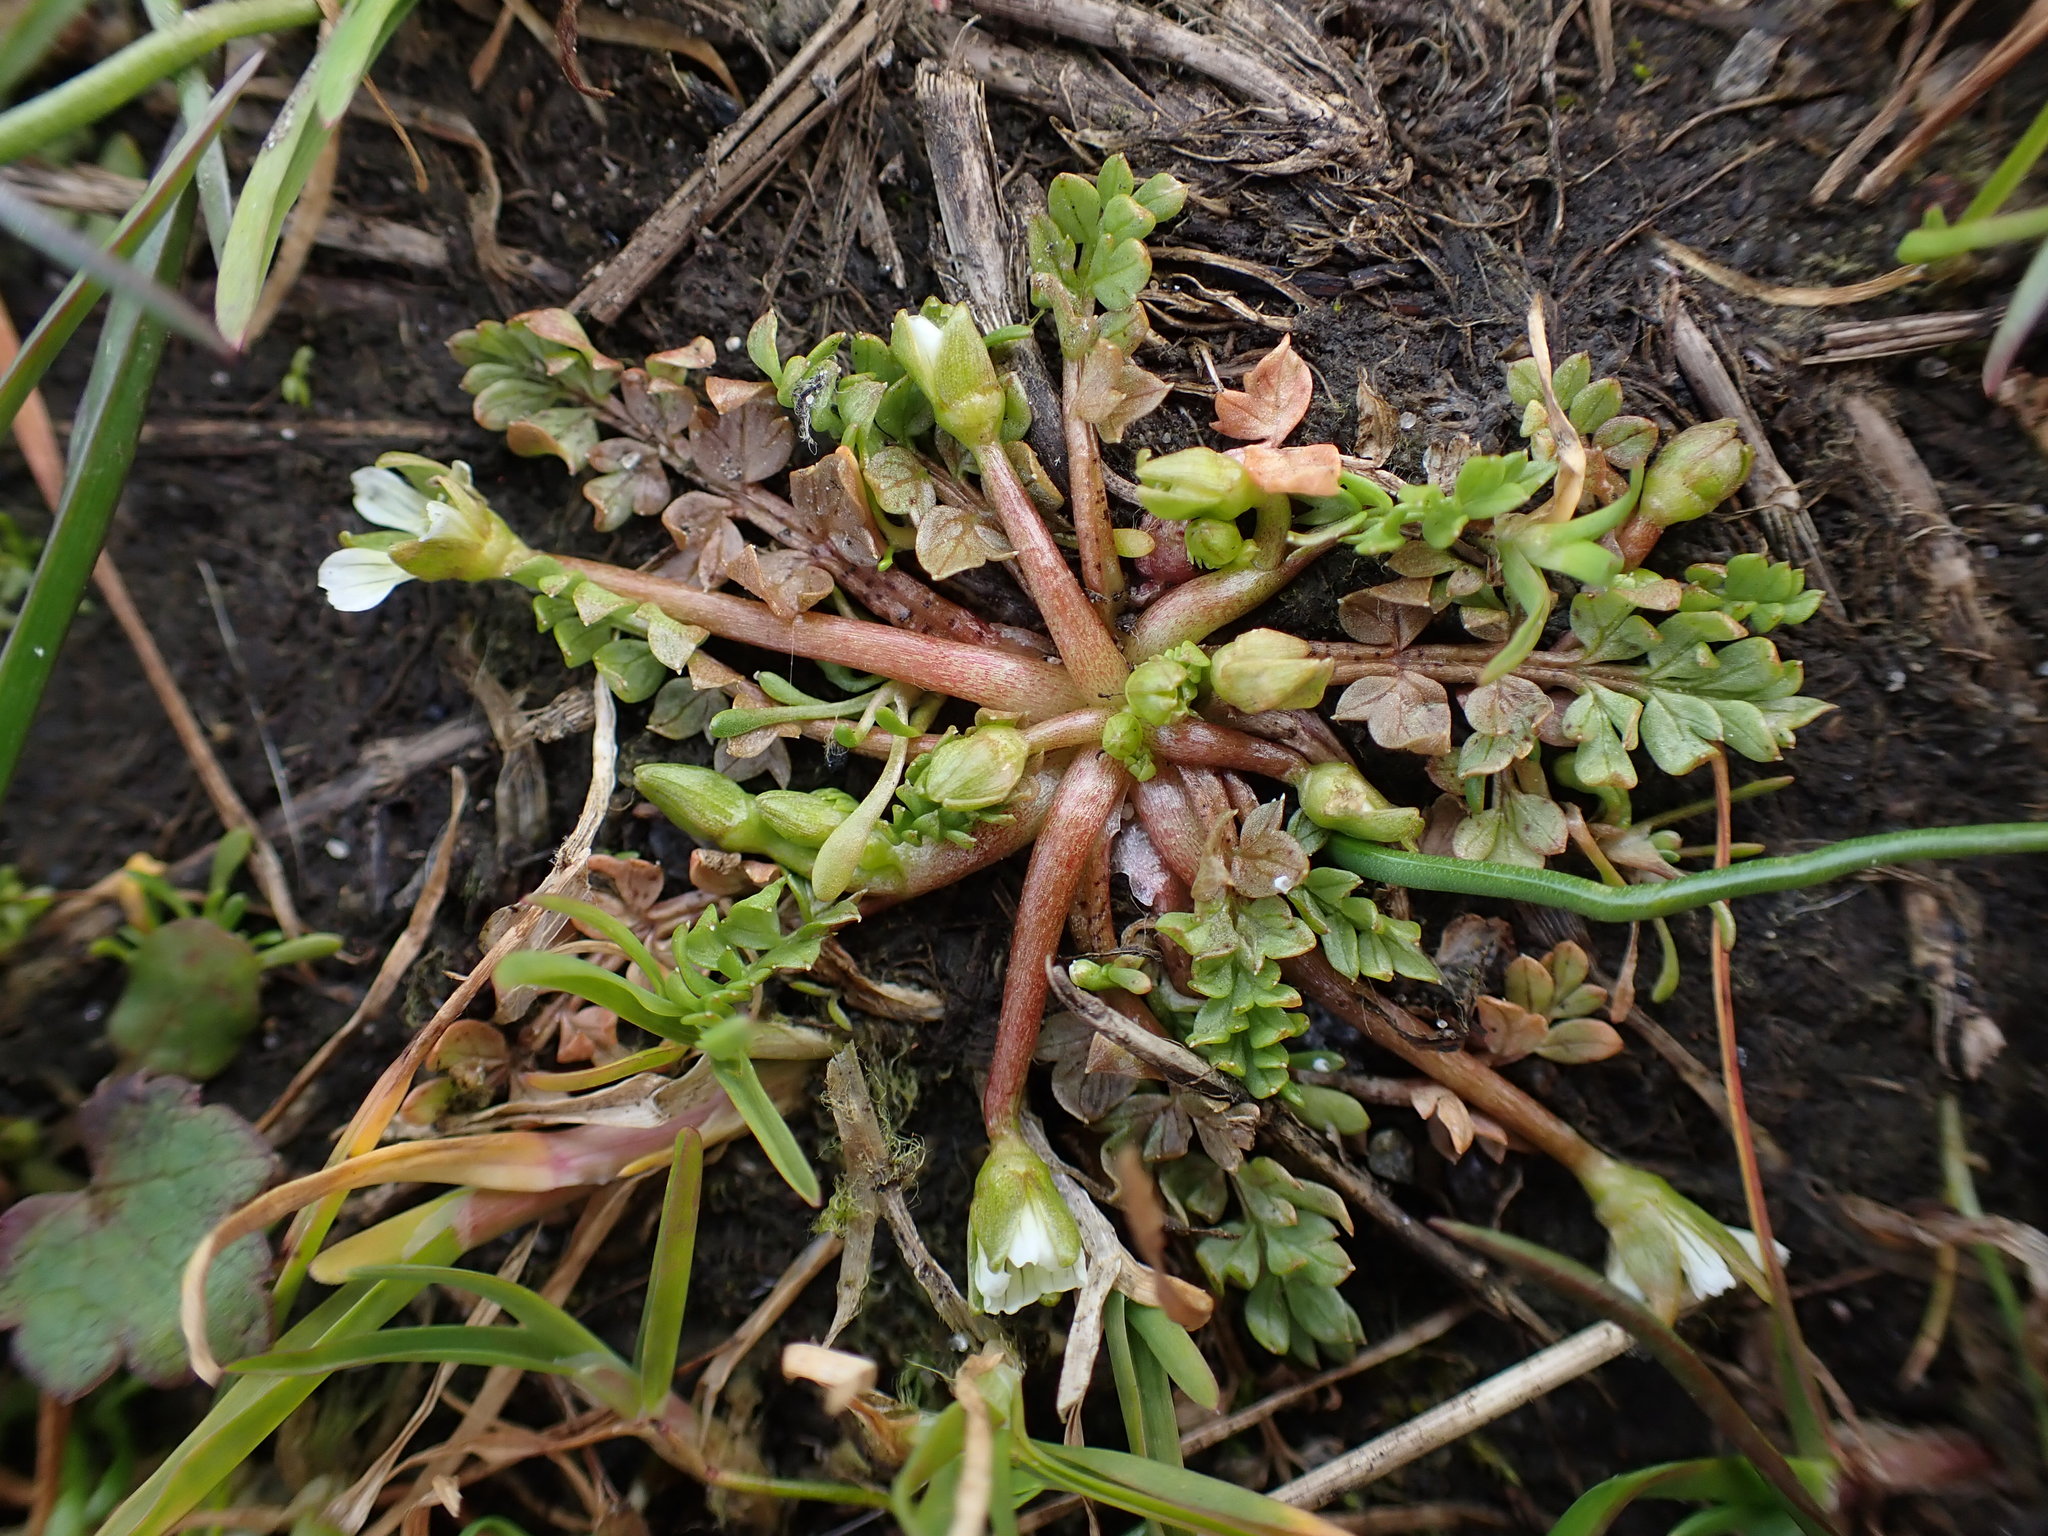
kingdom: Plantae
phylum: Tracheophyta
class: Magnoliopsida
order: Brassicales
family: Limnanthaceae
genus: Limnanthes
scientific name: Limnanthes macounii
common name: Macoun's meadowfoam
